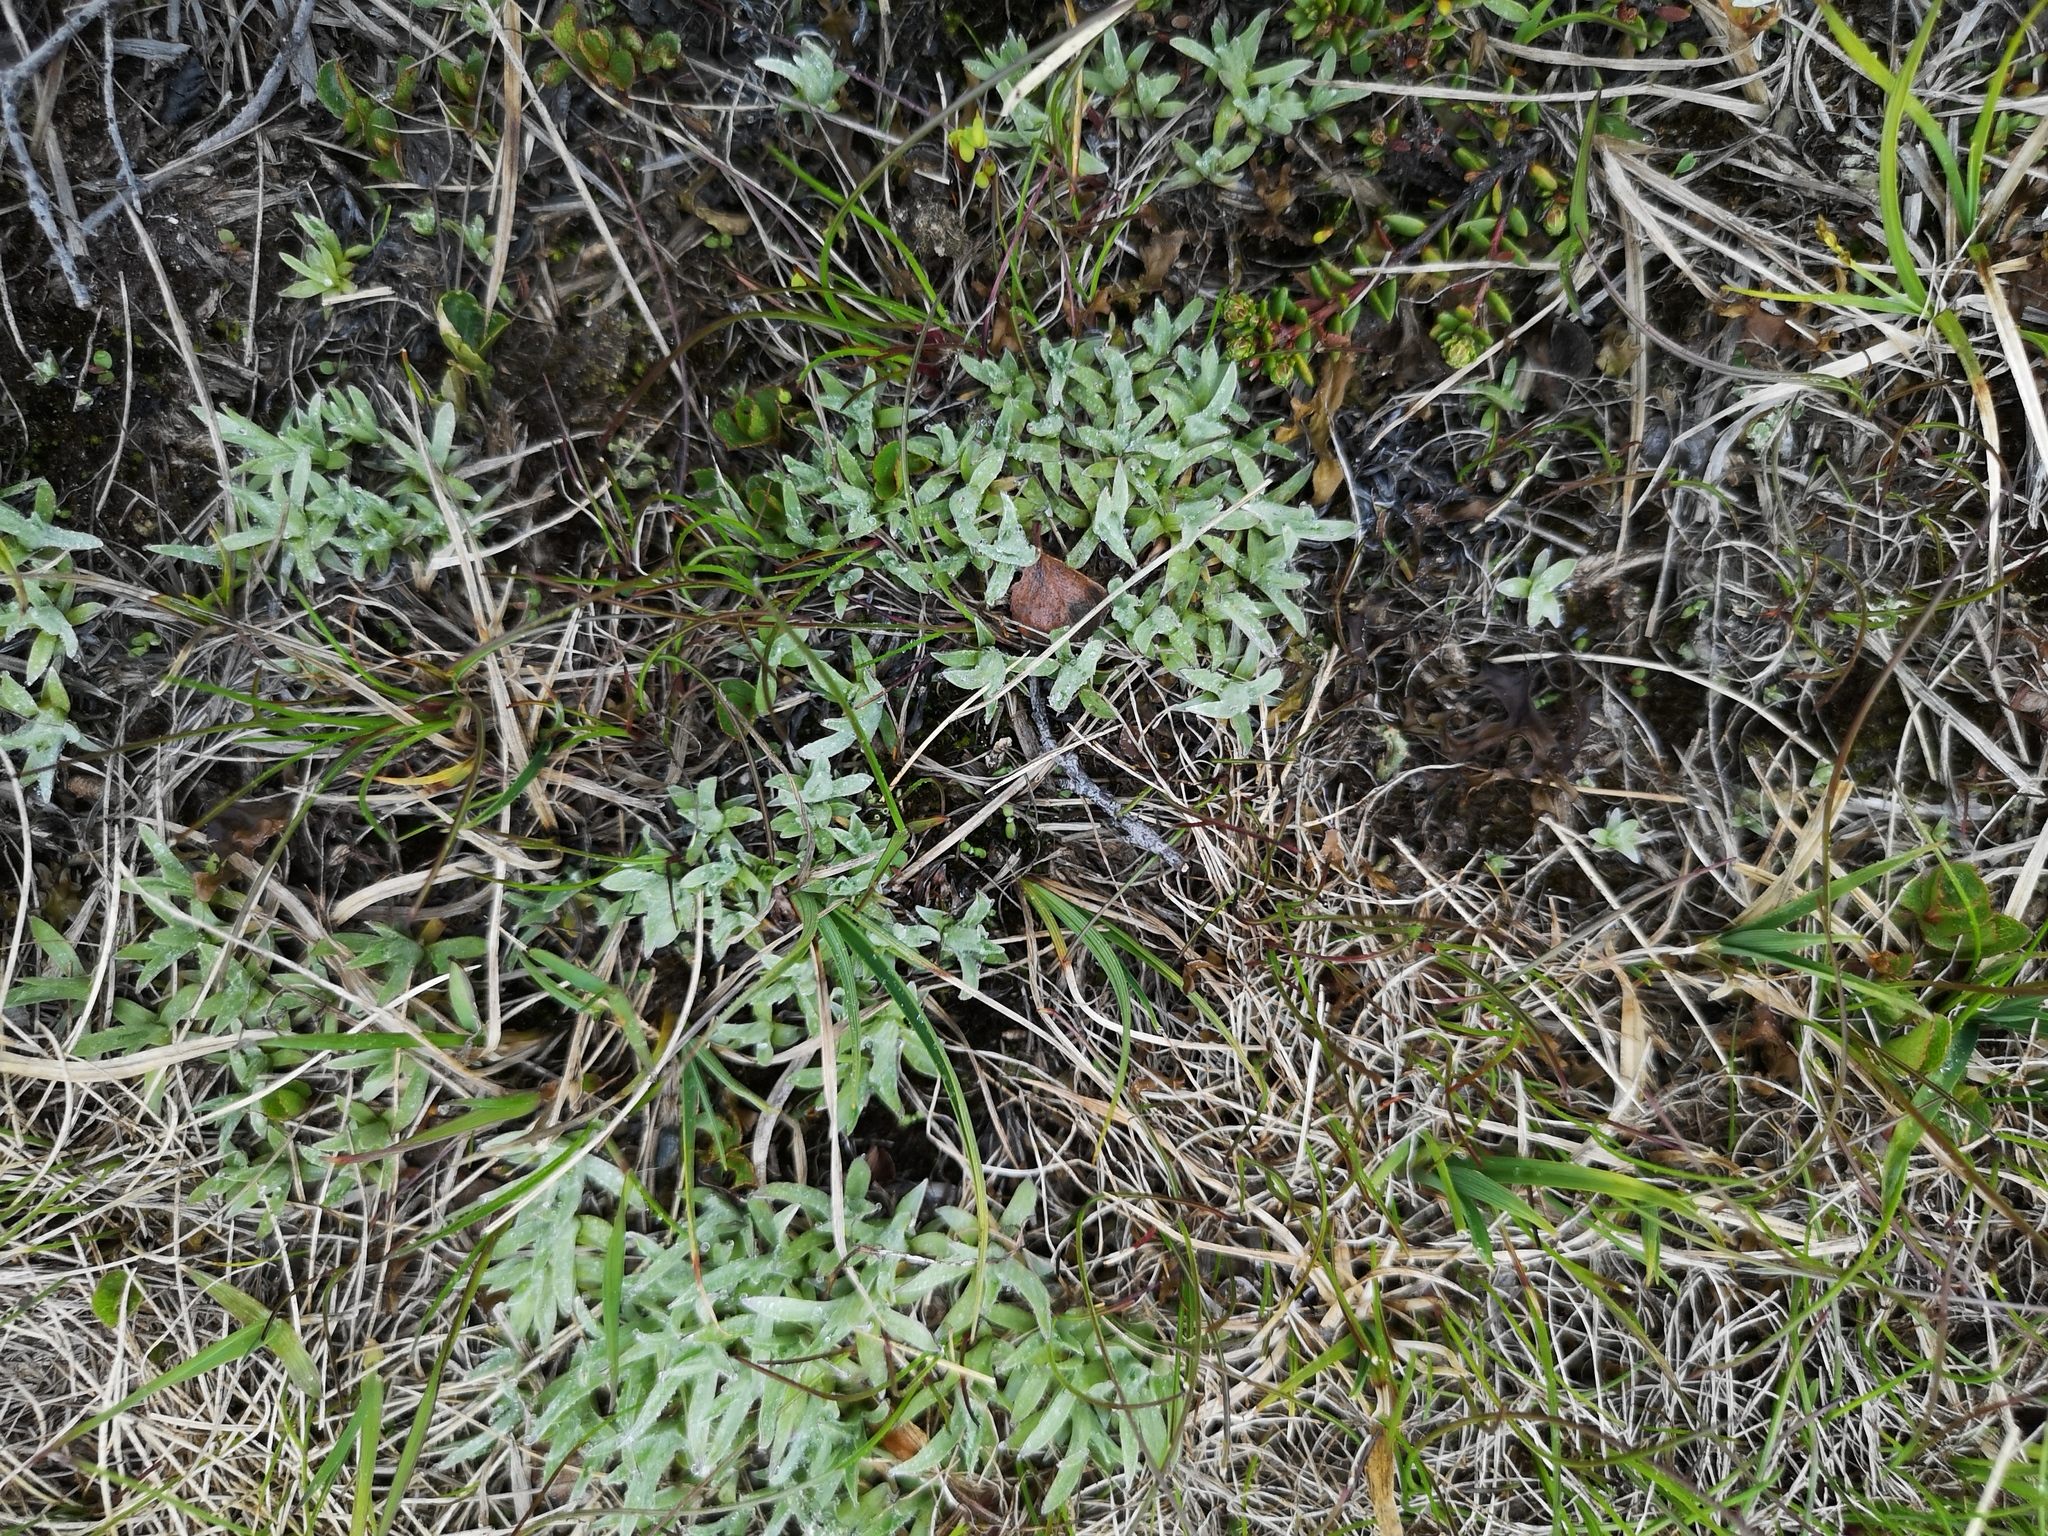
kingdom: Plantae
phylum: Tracheophyta
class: Magnoliopsida
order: Asterales
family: Asteraceae
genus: Omalotheca
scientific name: Omalotheca supina
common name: Alpine arctic-cudweed
